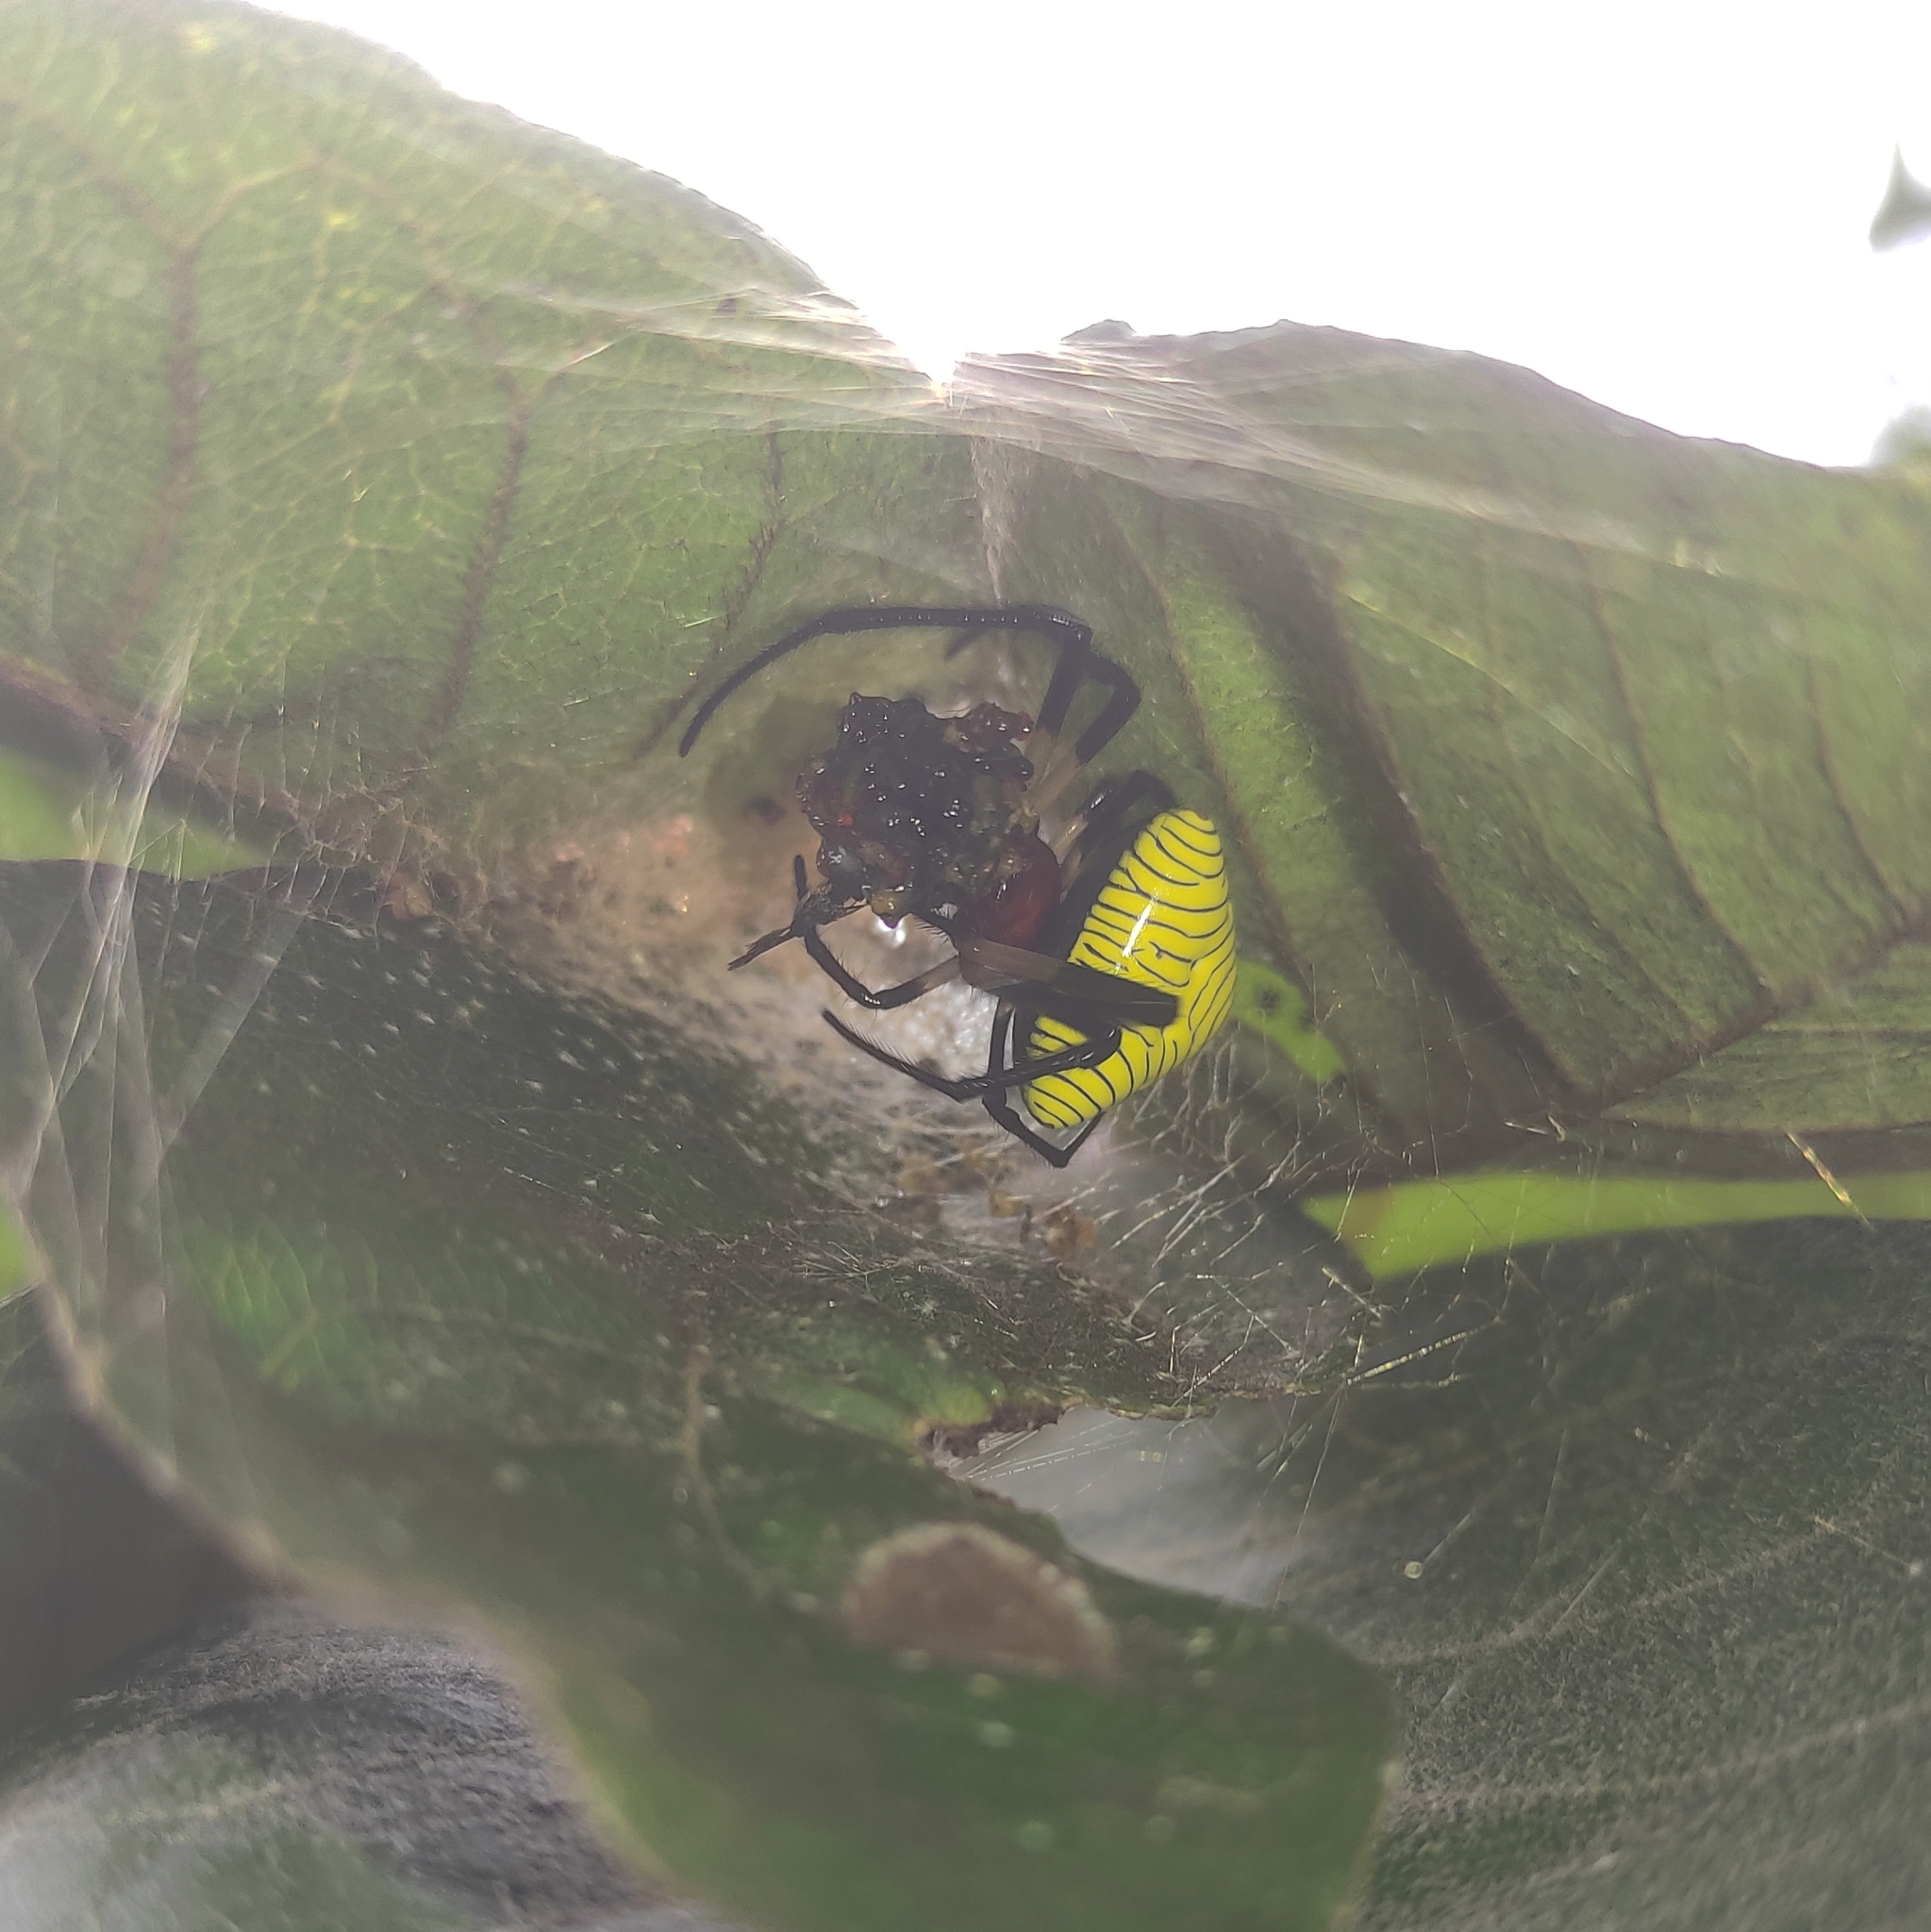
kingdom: Animalia
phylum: Arthropoda
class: Arachnida
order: Araneae
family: Araneidae
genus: Verrucosa
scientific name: Verrucosa zebra
